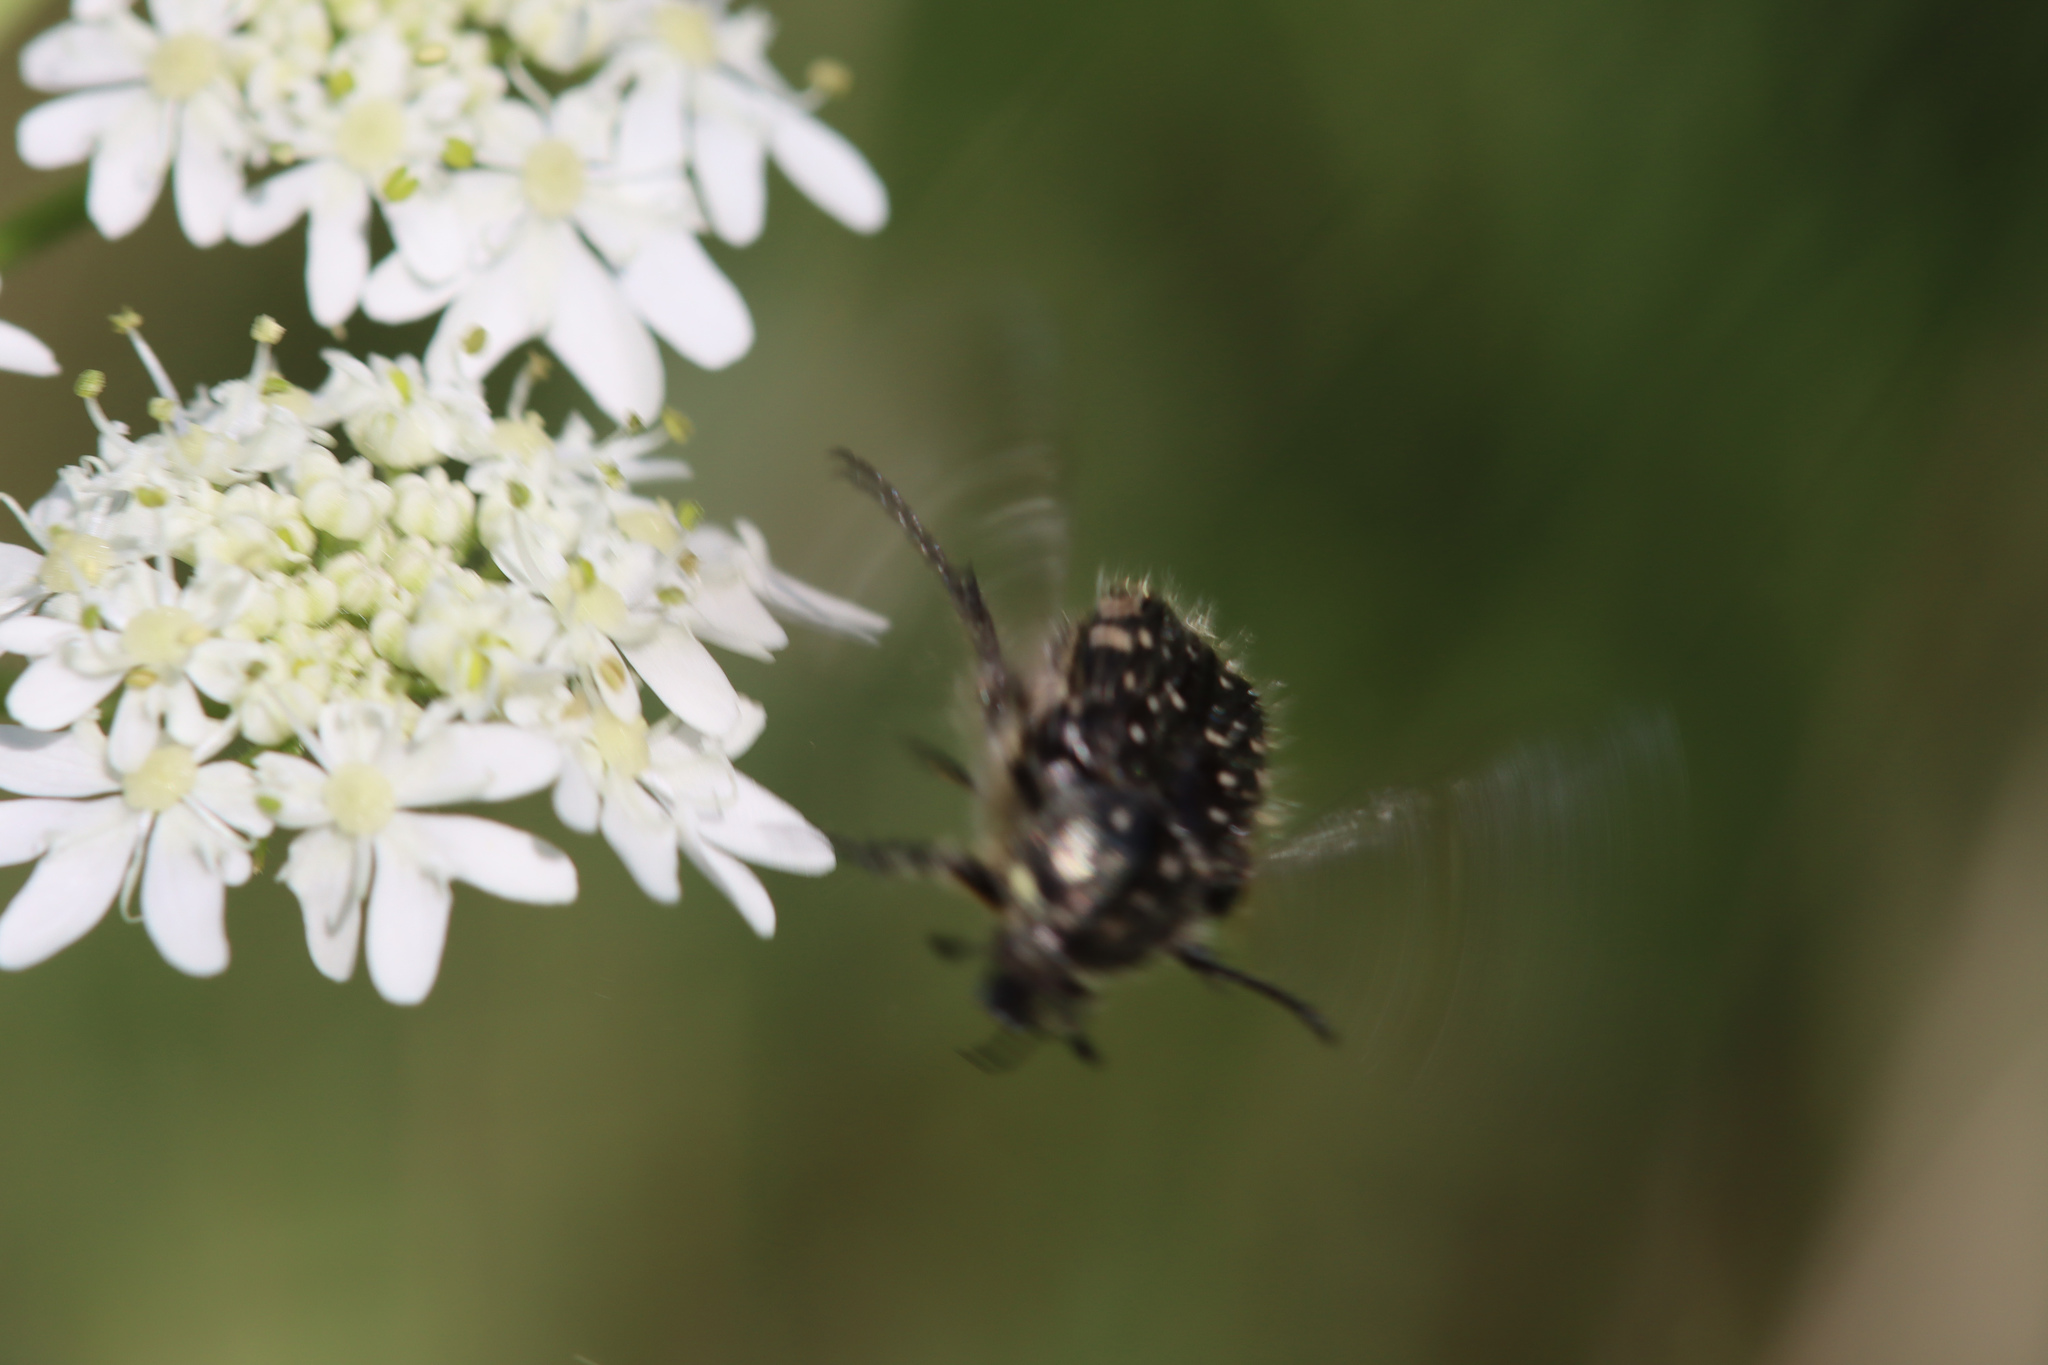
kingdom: Animalia
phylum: Arthropoda
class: Insecta
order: Coleoptera
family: Scarabaeidae
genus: Oxythyrea
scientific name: Oxythyrea funesta
